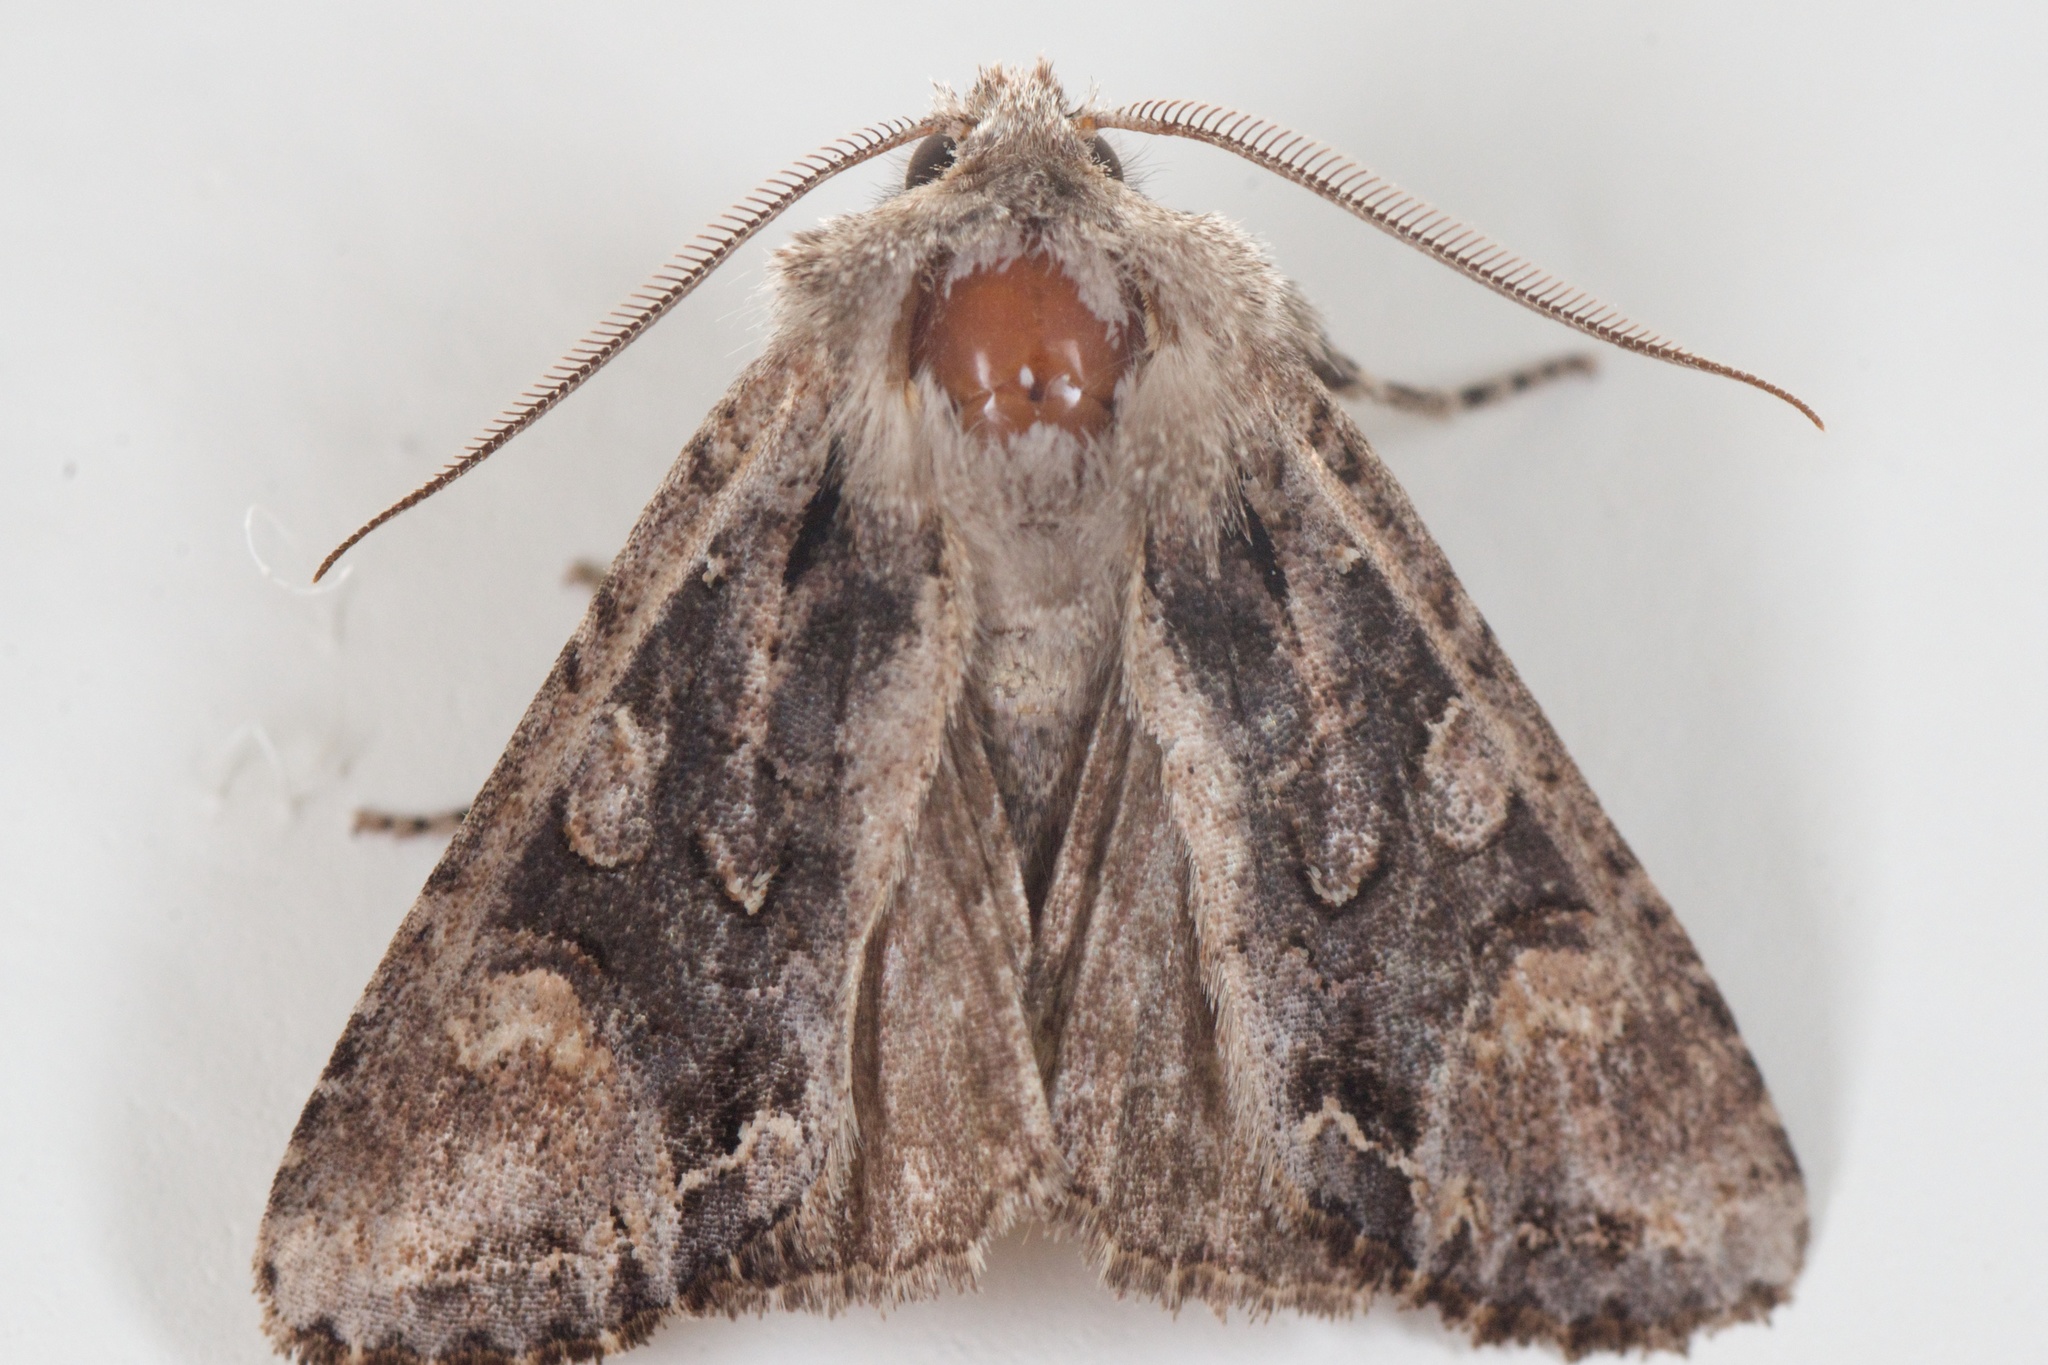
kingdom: Animalia
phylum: Arthropoda
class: Insecta
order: Lepidoptera
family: Noctuidae
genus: Ichneutica
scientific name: Ichneutica insignis
